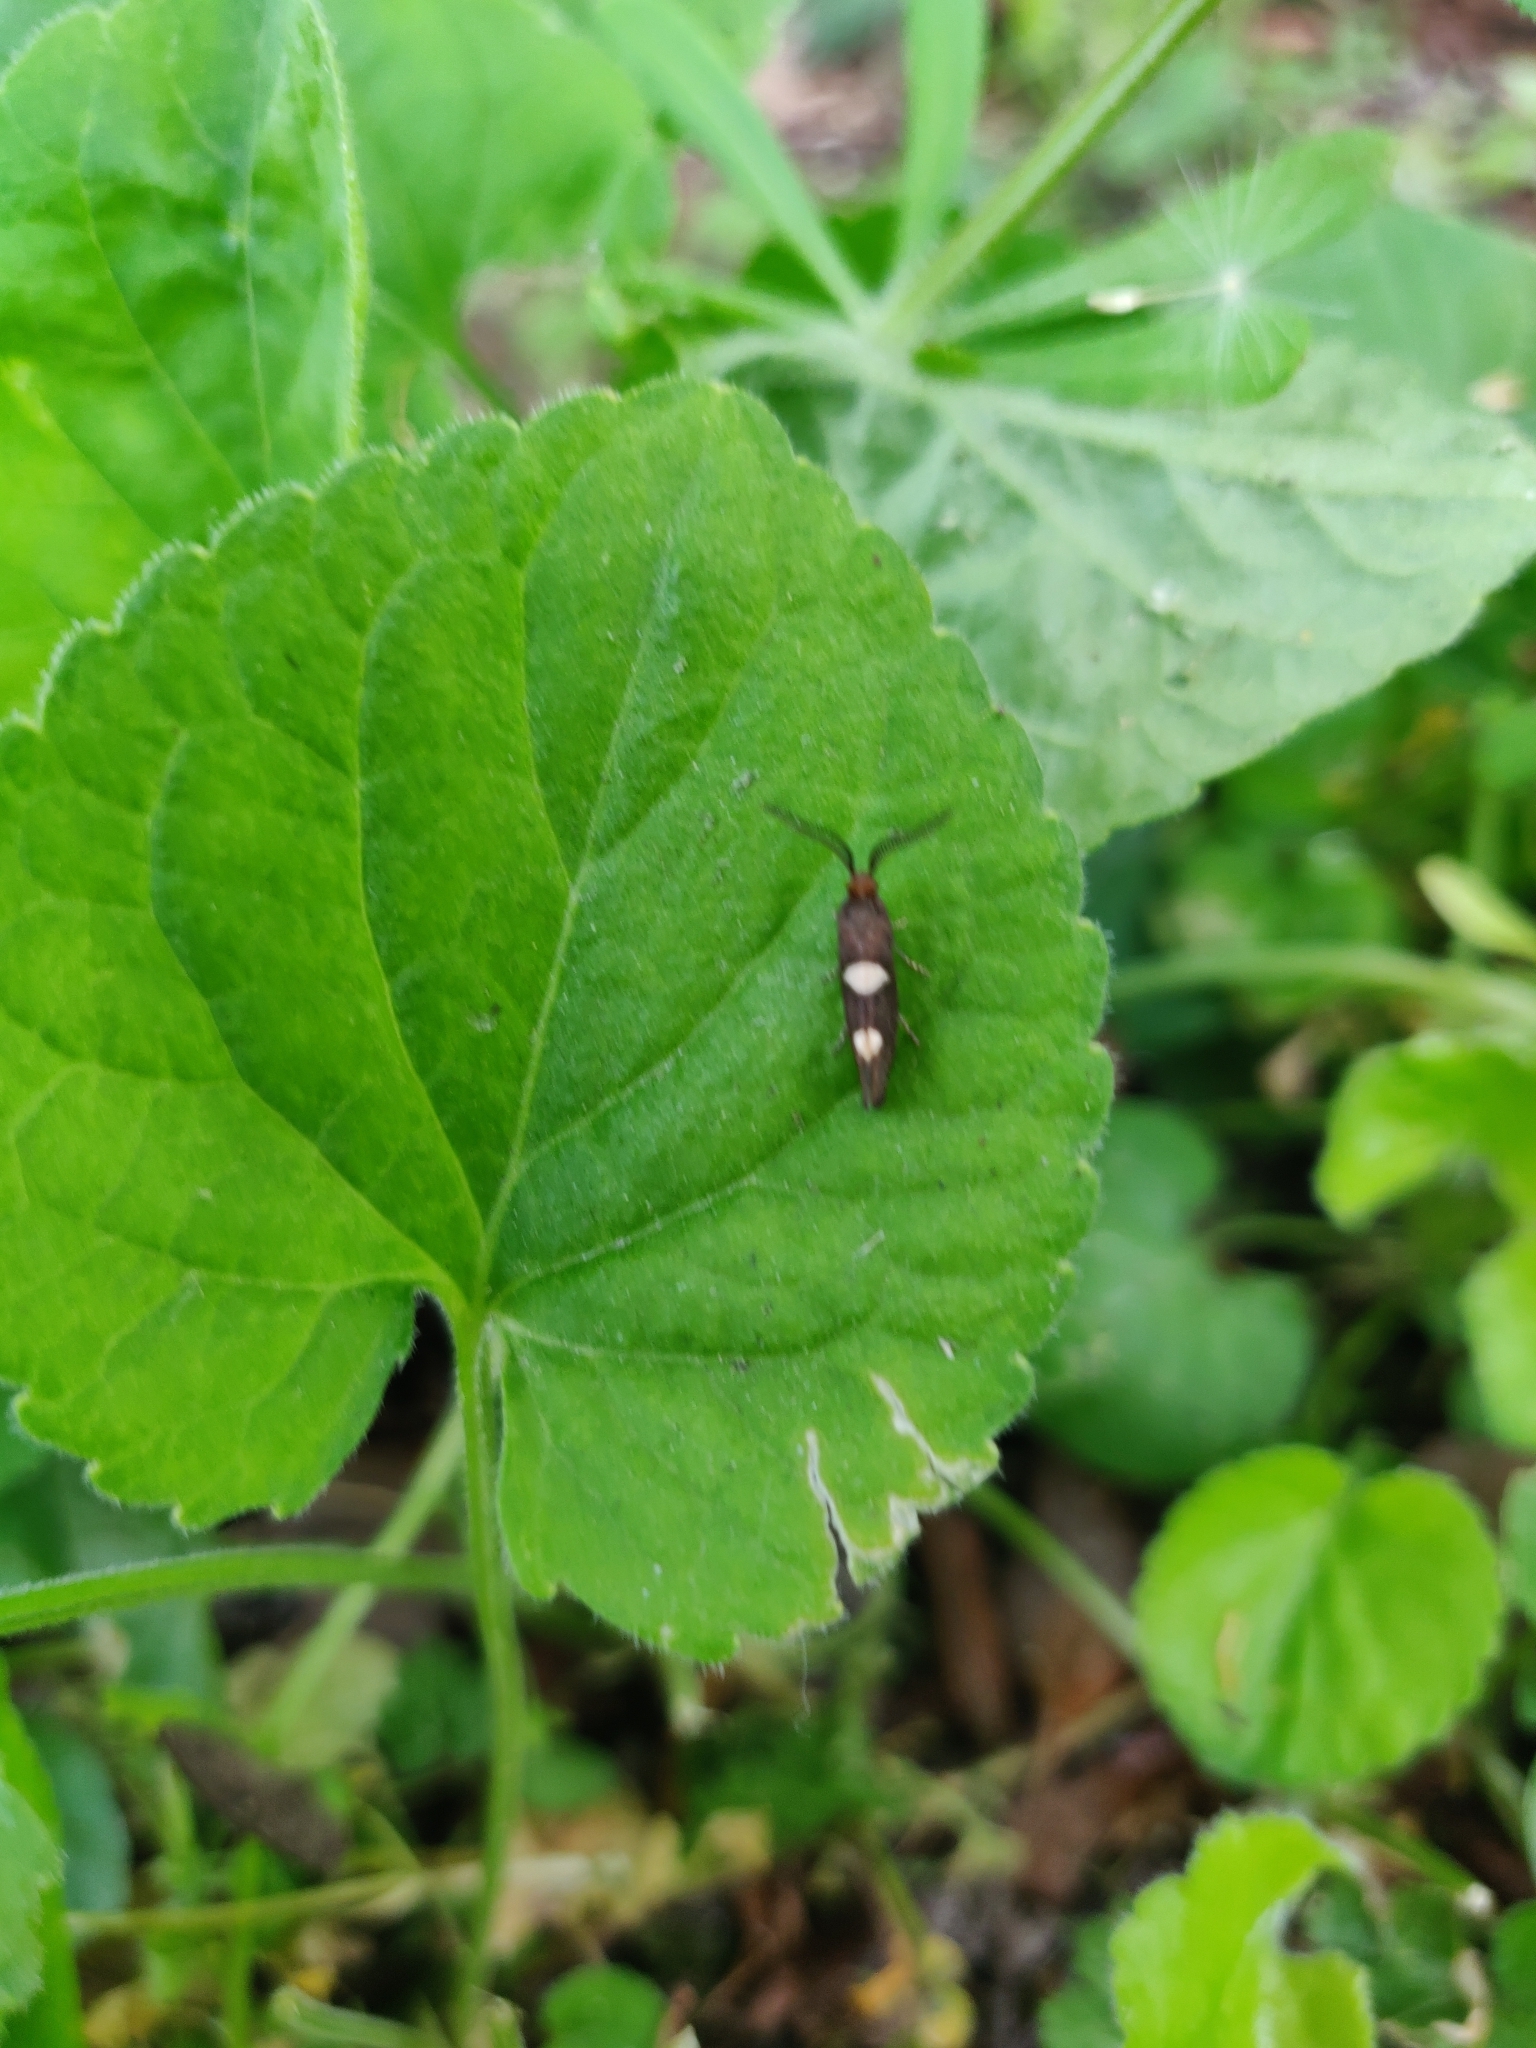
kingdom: Animalia
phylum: Arthropoda
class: Insecta
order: Lepidoptera
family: Incurvariidae
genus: Incurvaria
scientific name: Incurvaria masculella
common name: Feathered leaf-cutter
